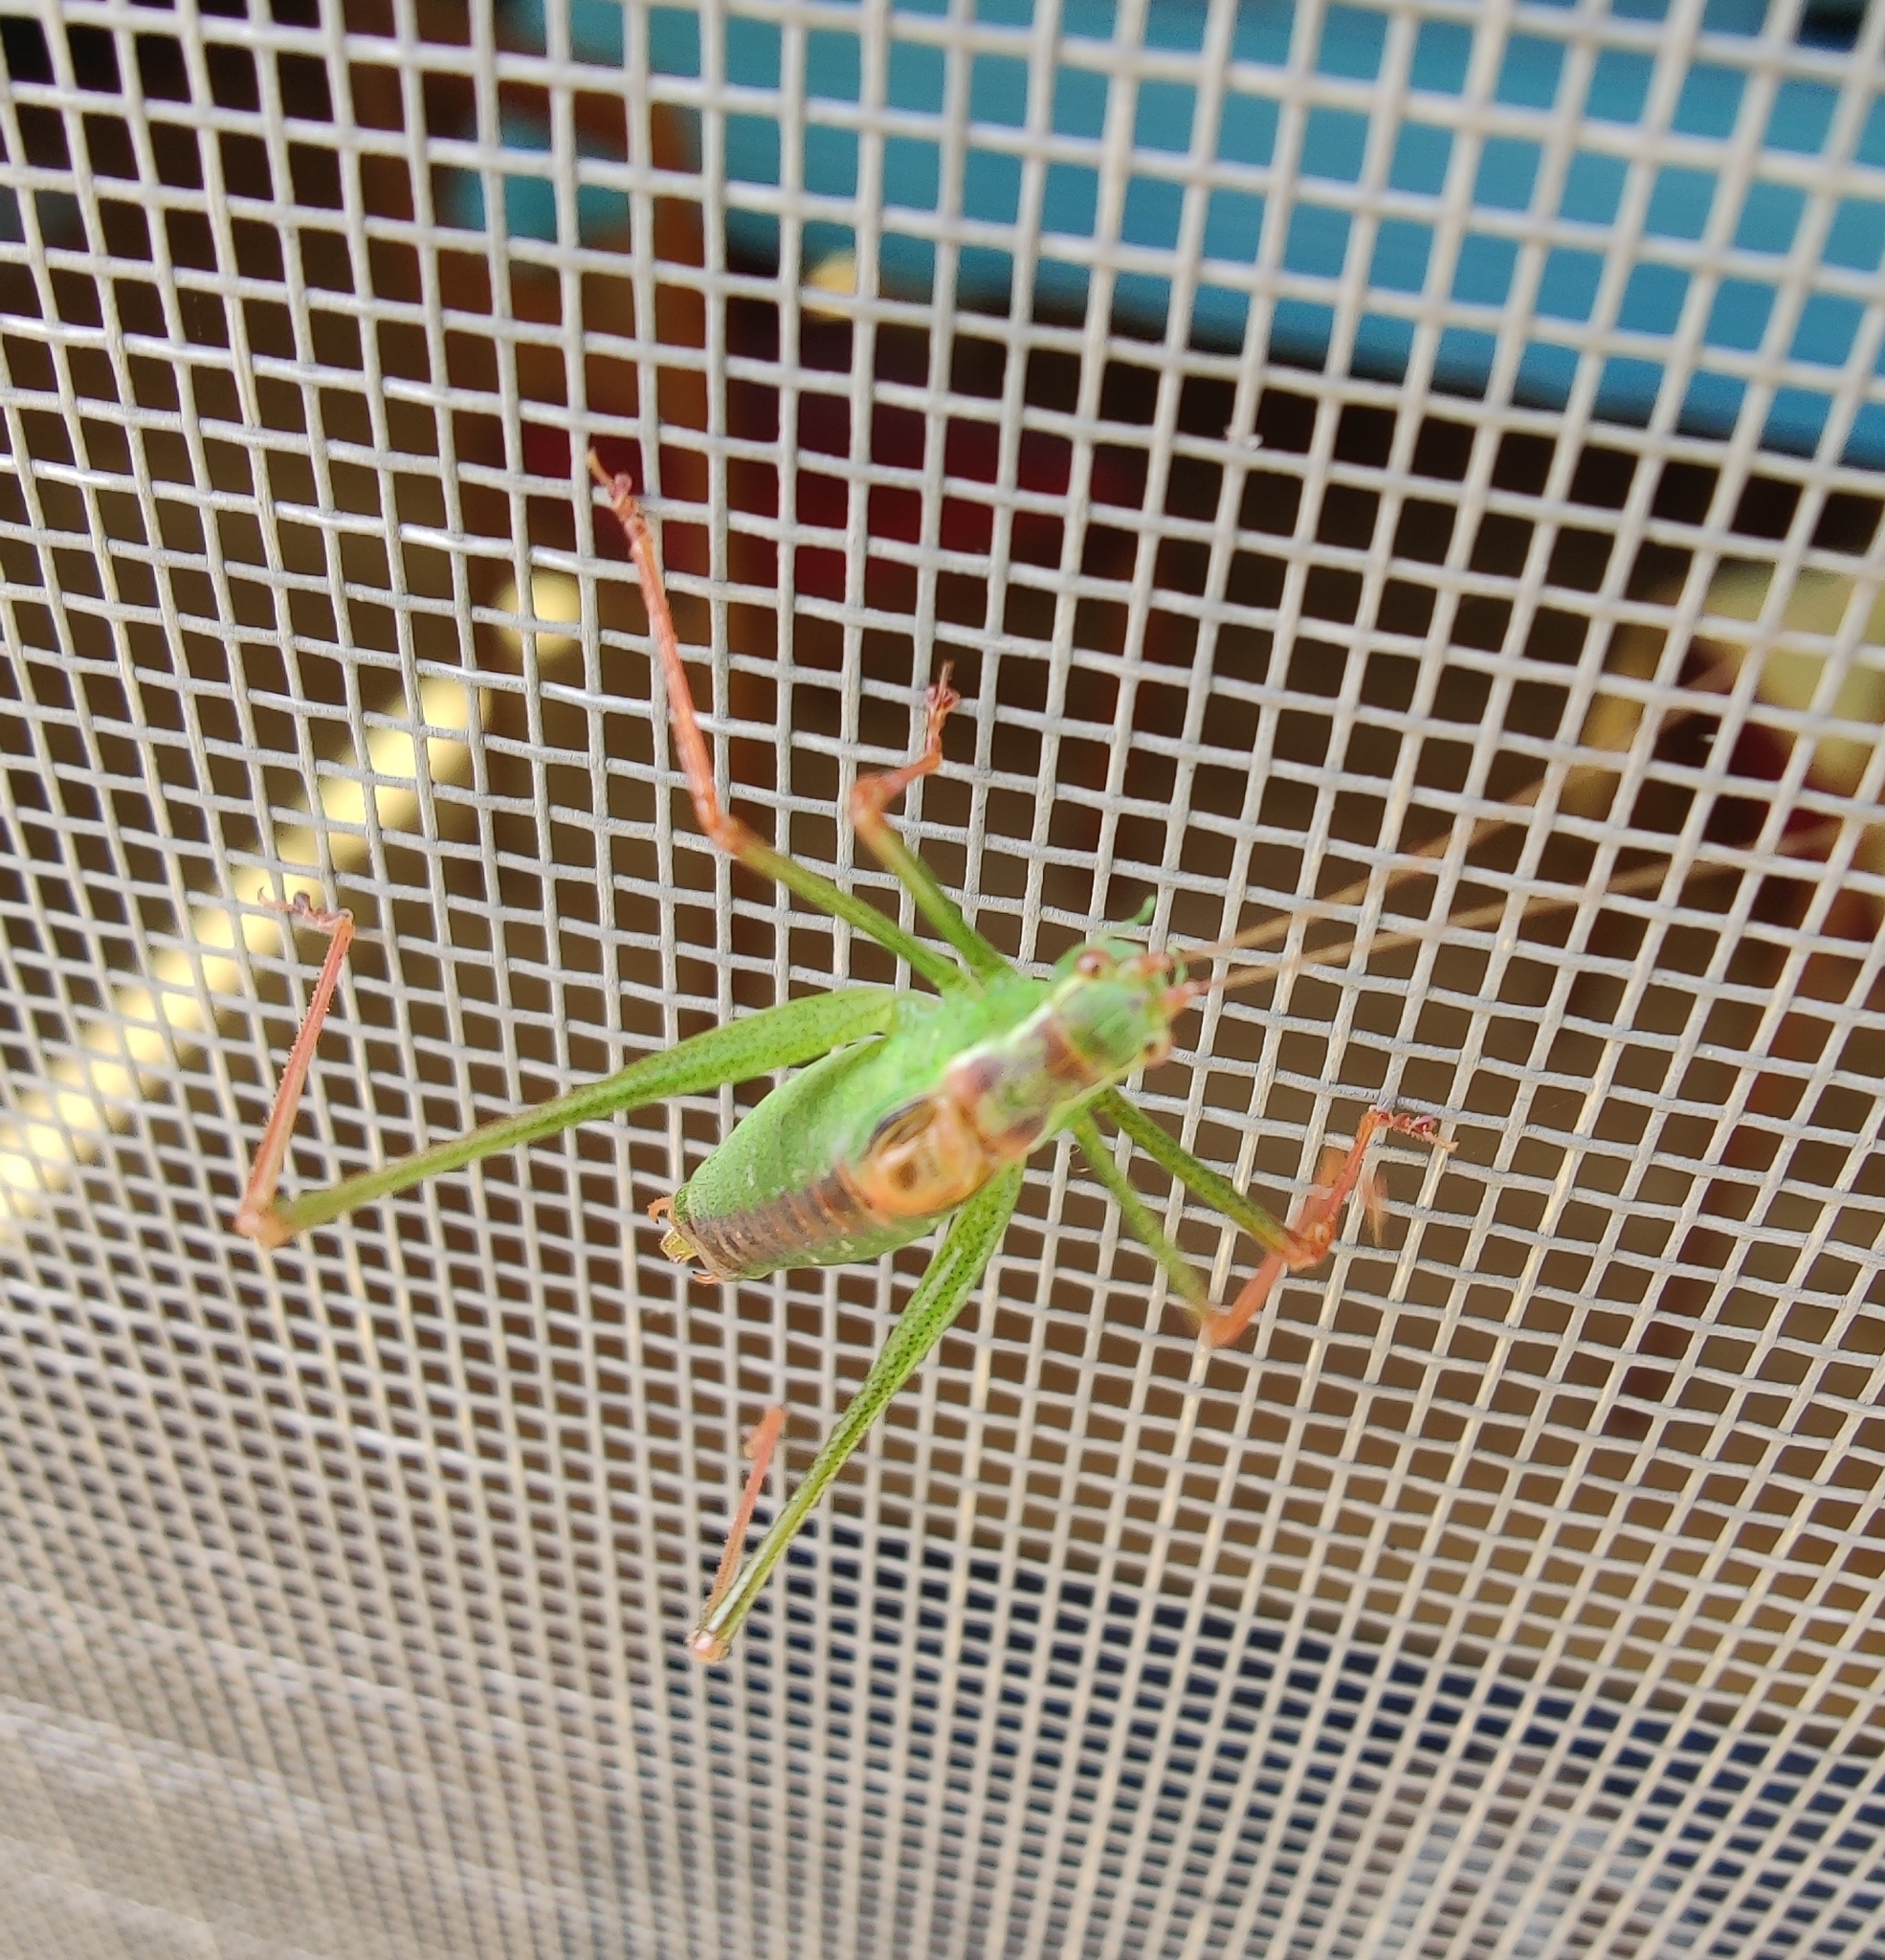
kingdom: Animalia
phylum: Arthropoda
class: Insecta
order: Orthoptera
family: Tettigoniidae
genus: Leptophyes
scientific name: Leptophyes punctatissima
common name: Speckled bush-cricket
